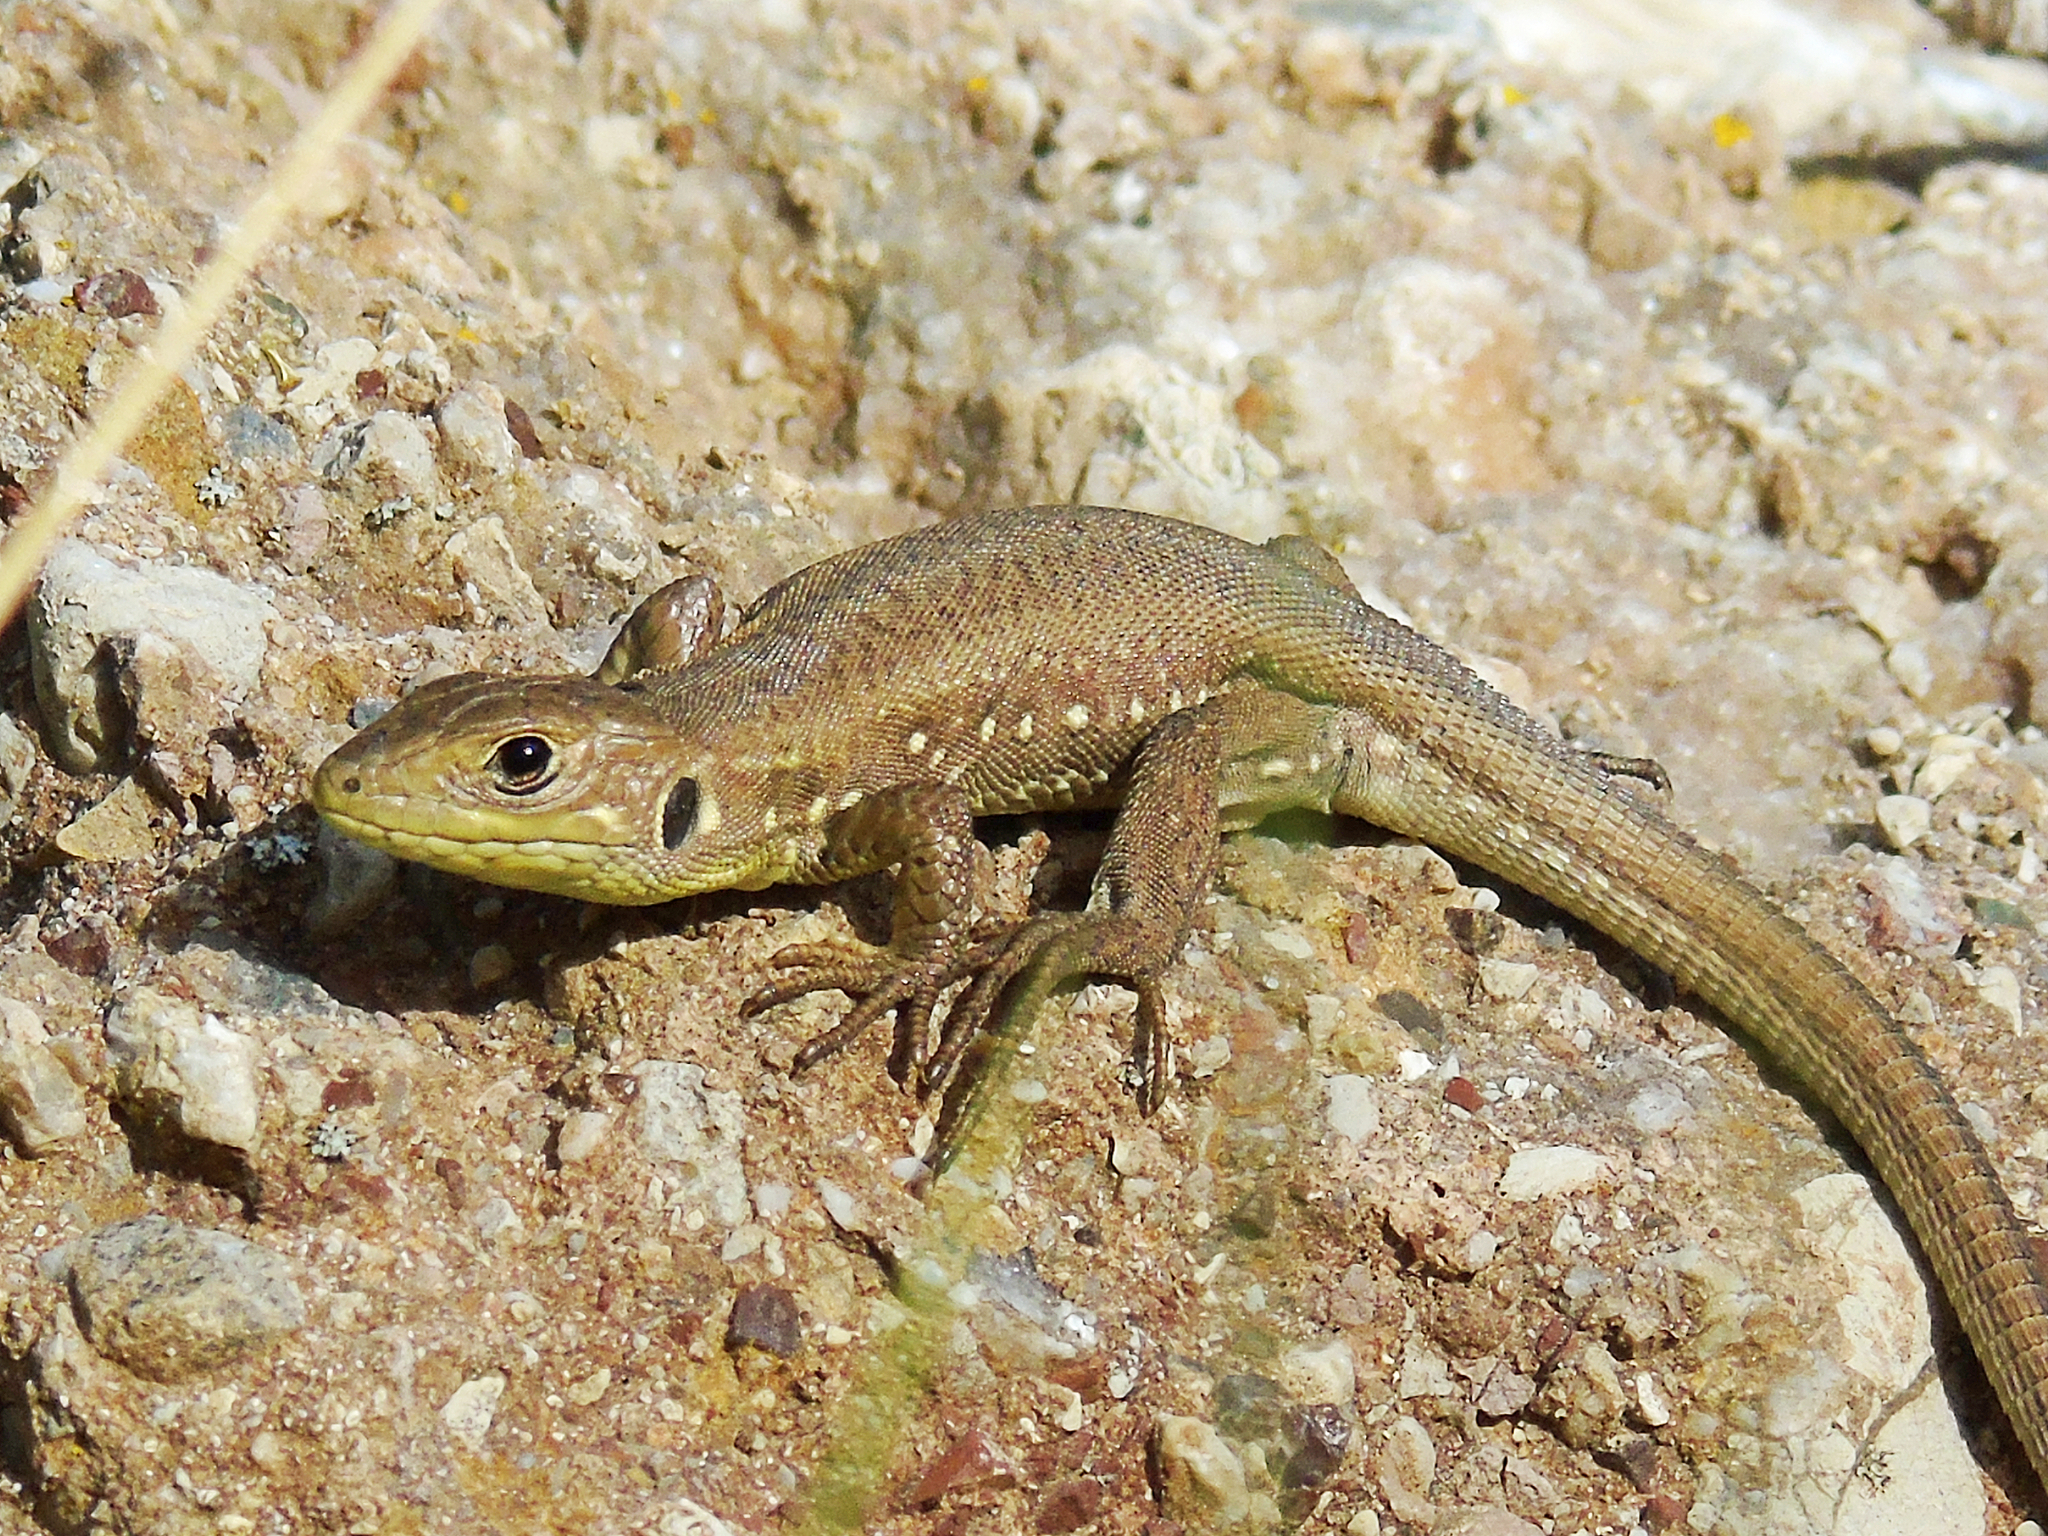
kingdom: Animalia
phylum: Chordata
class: Squamata
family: Lacertidae
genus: Lacerta
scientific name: Lacerta trilineata
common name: Balkan green lizard
